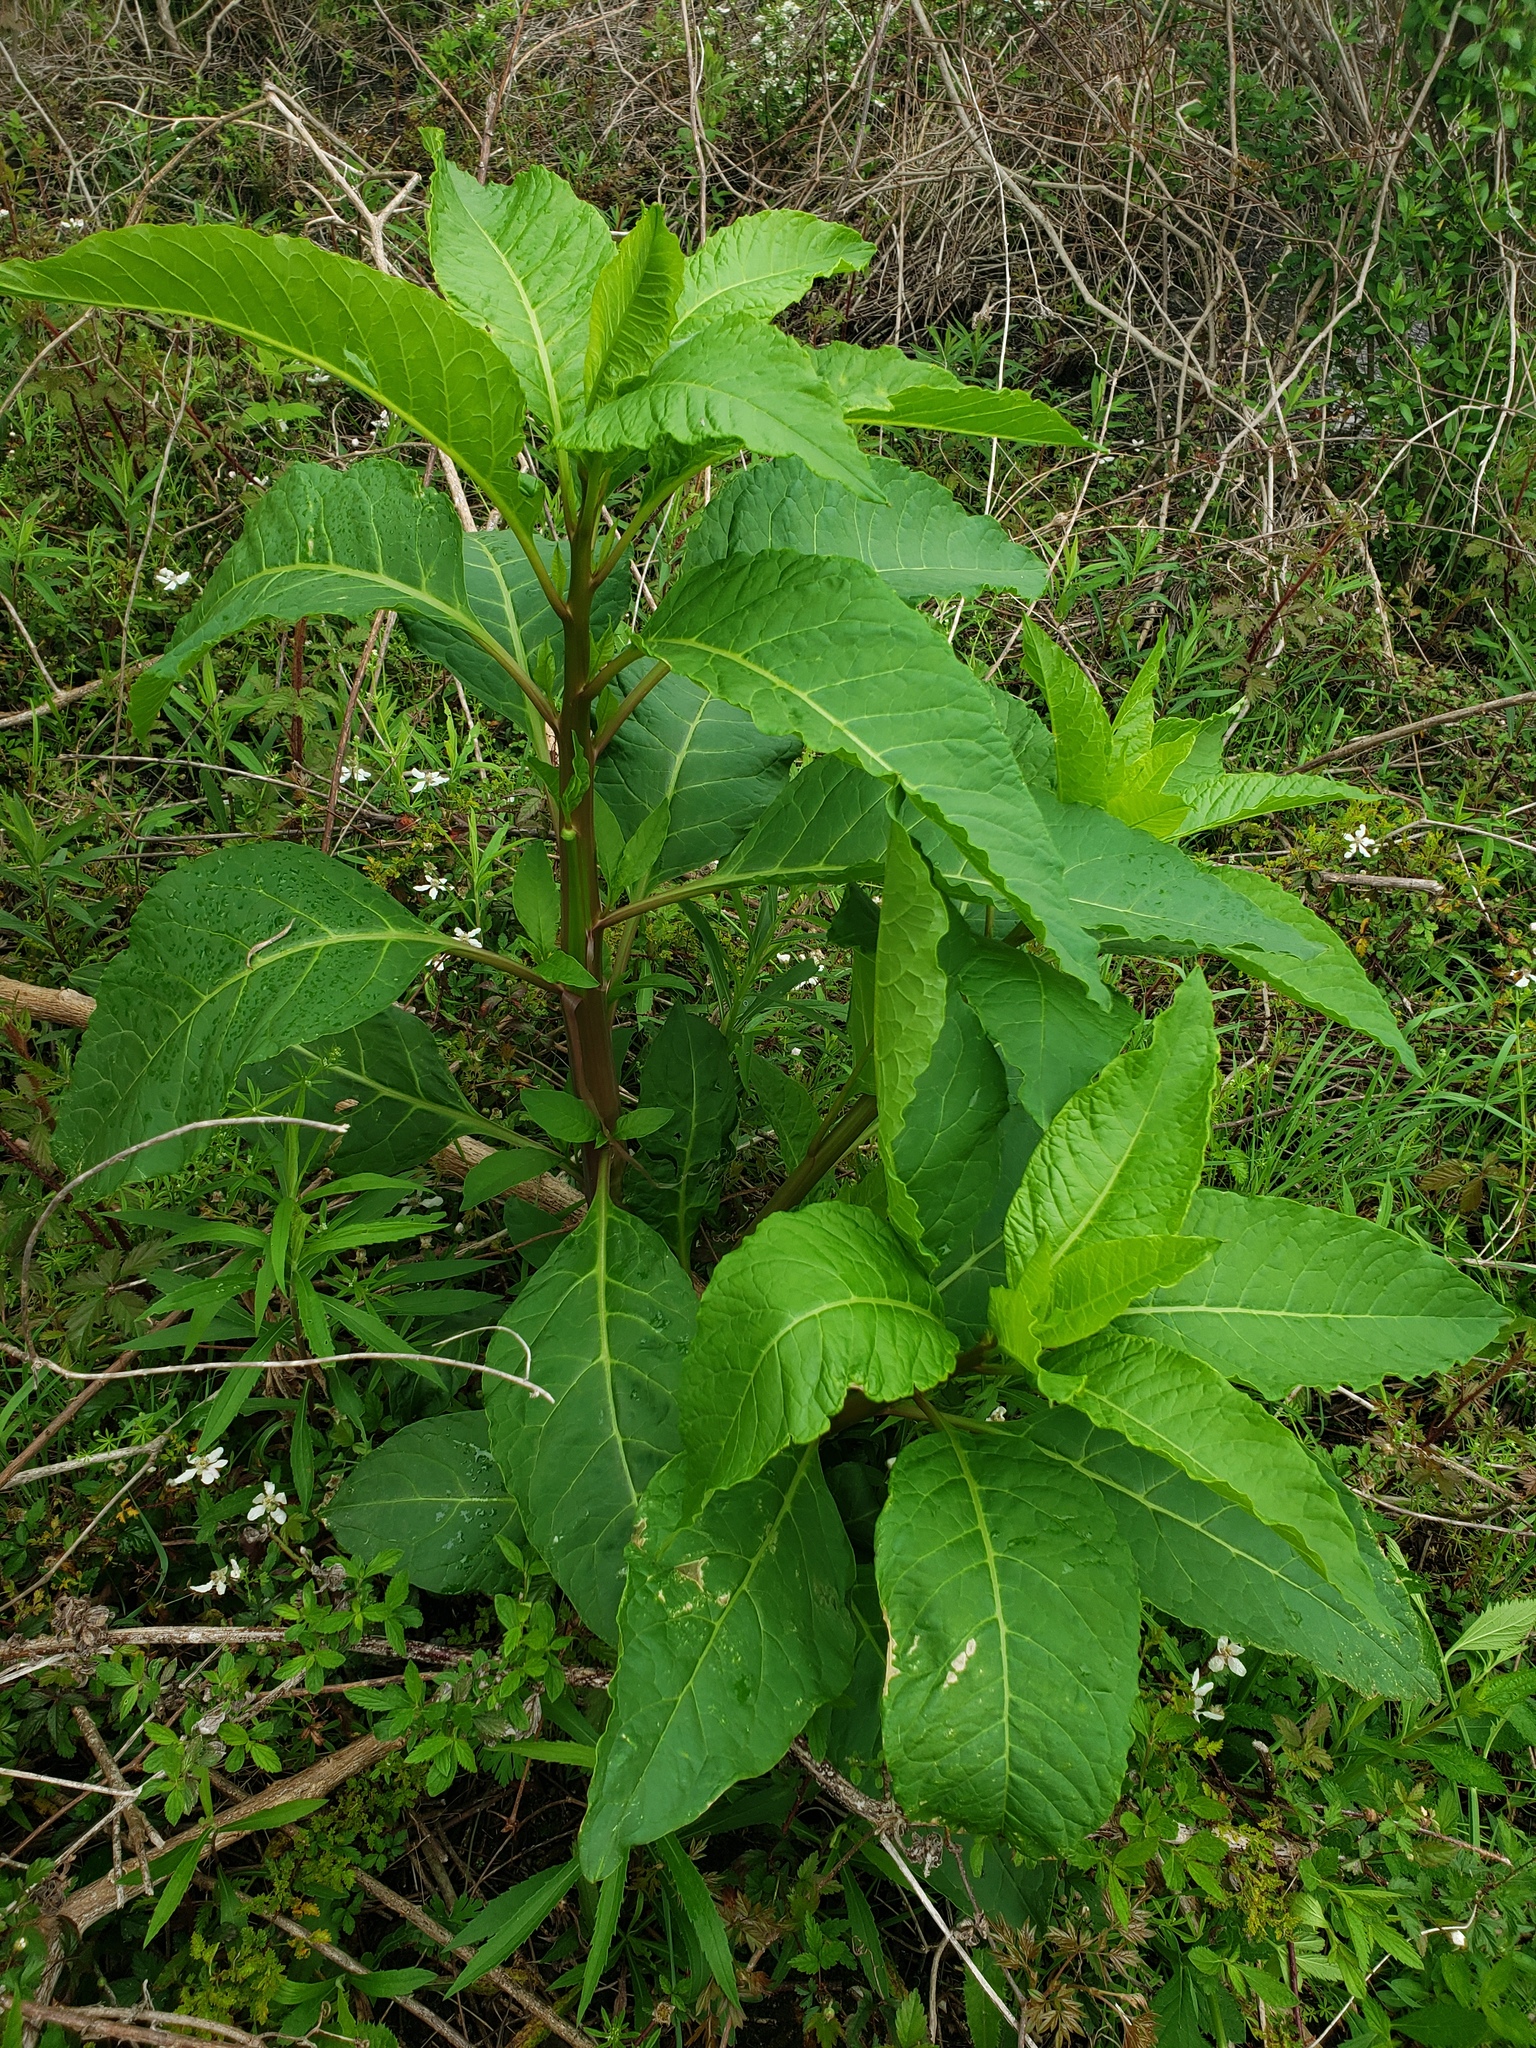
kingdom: Plantae
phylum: Tracheophyta
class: Magnoliopsida
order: Caryophyllales
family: Phytolaccaceae
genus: Phytolacca
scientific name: Phytolacca americana
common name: American pokeweed
